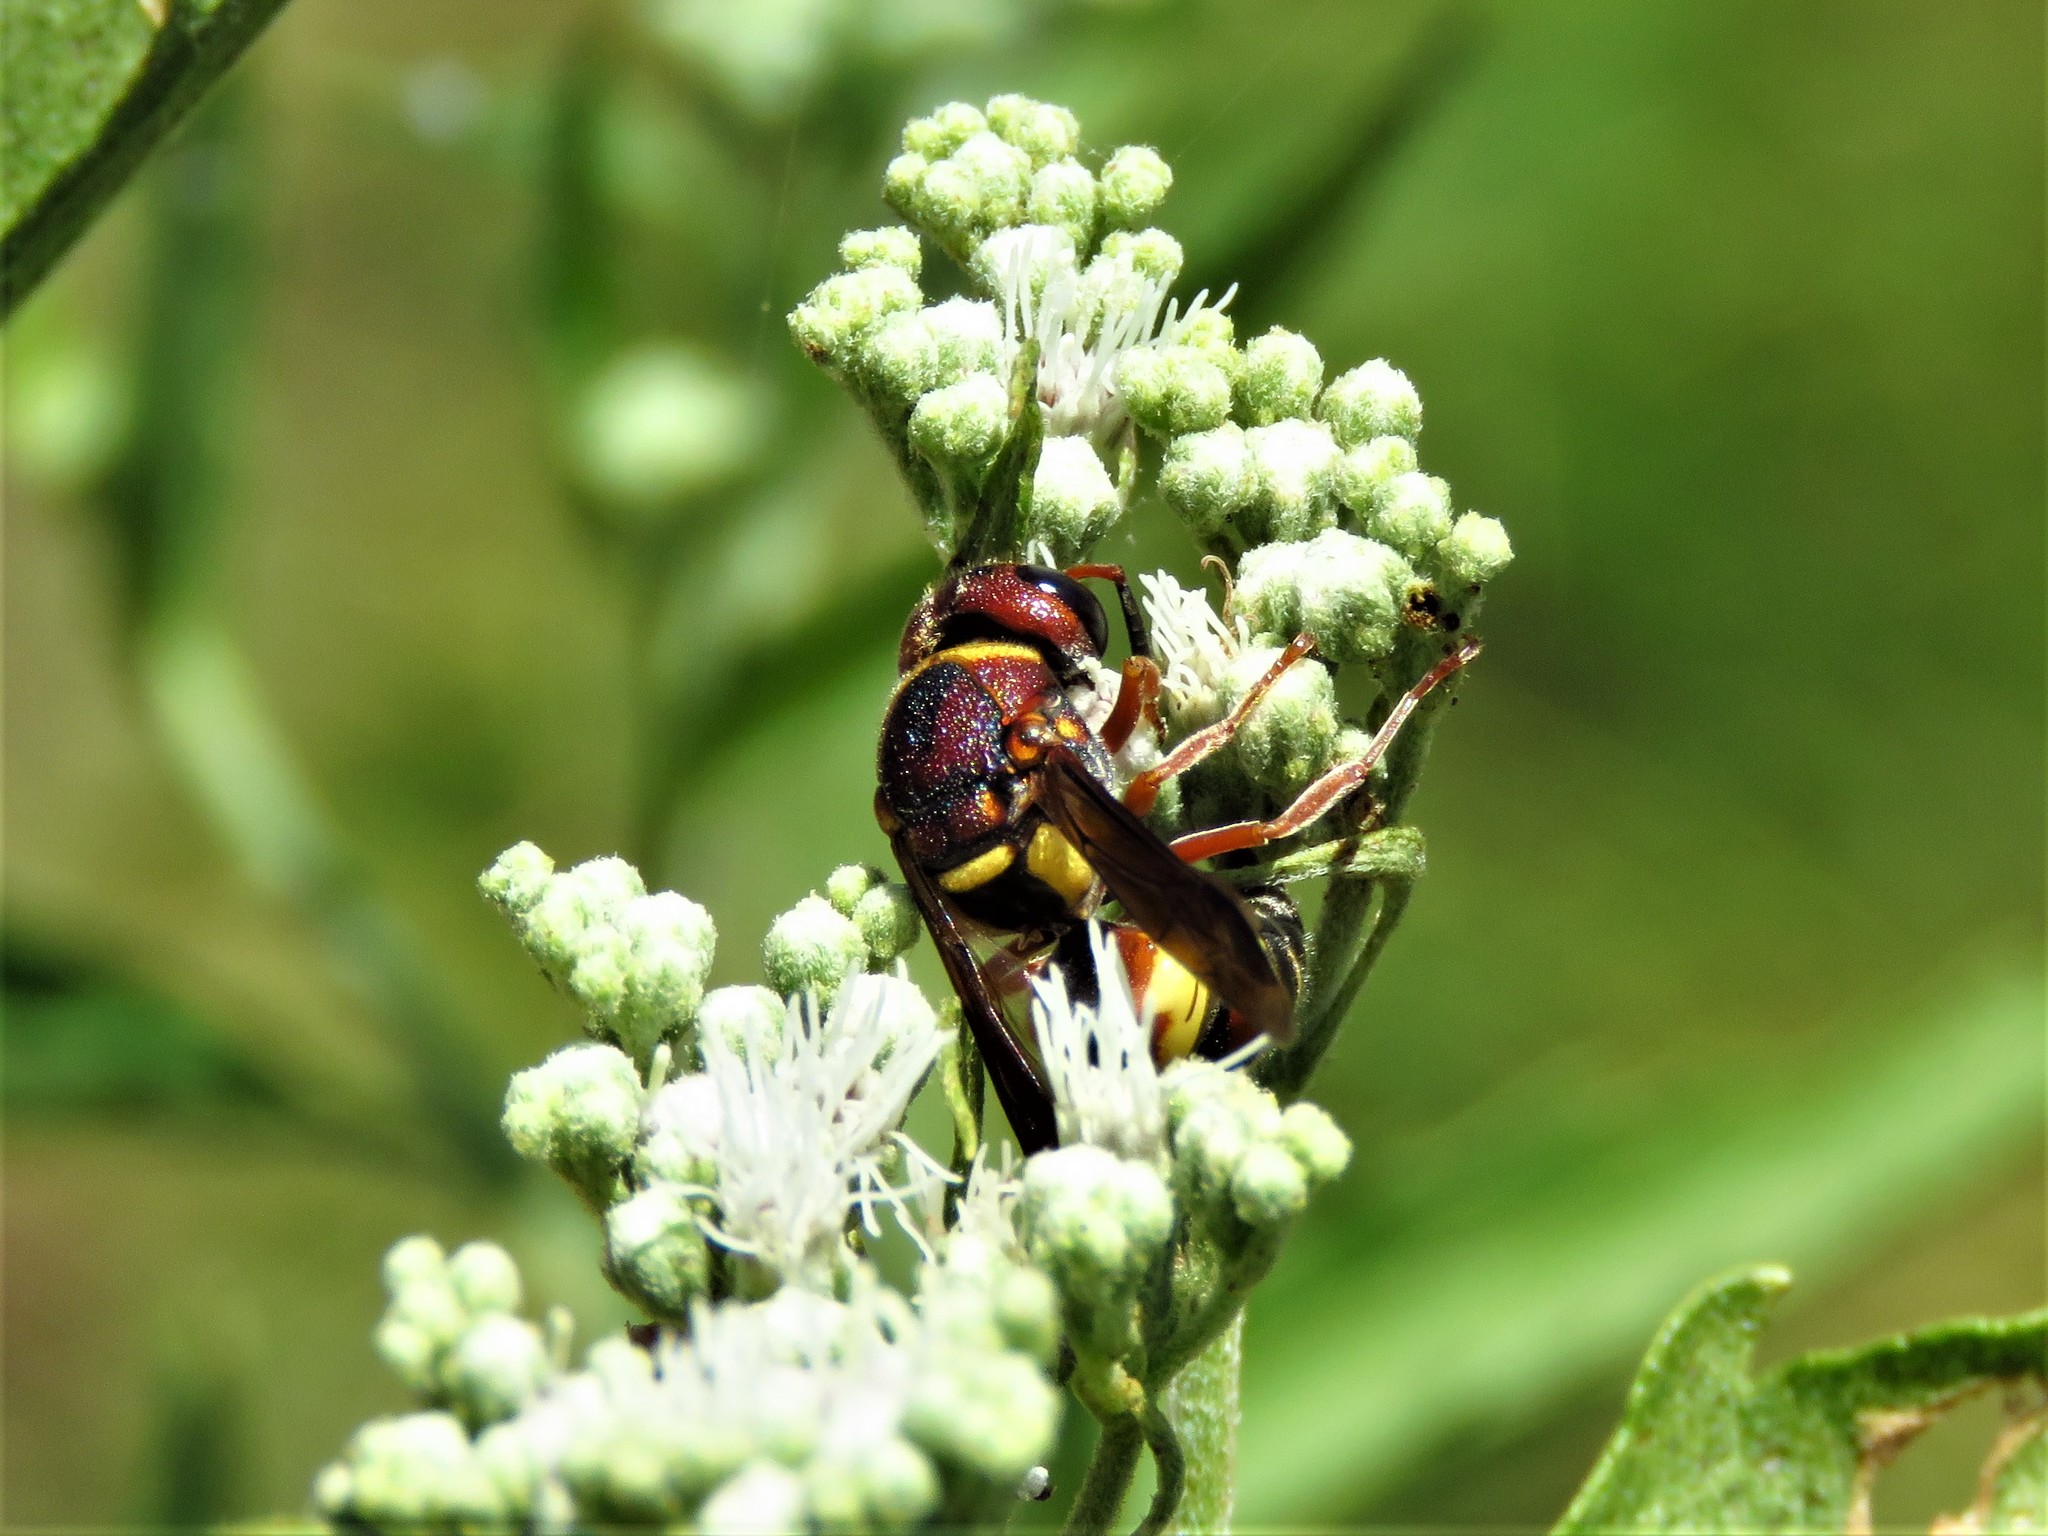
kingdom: Animalia
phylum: Arthropoda
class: Insecta
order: Hymenoptera
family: Eumenidae
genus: Euodynerus
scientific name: Euodynerus annulatus
